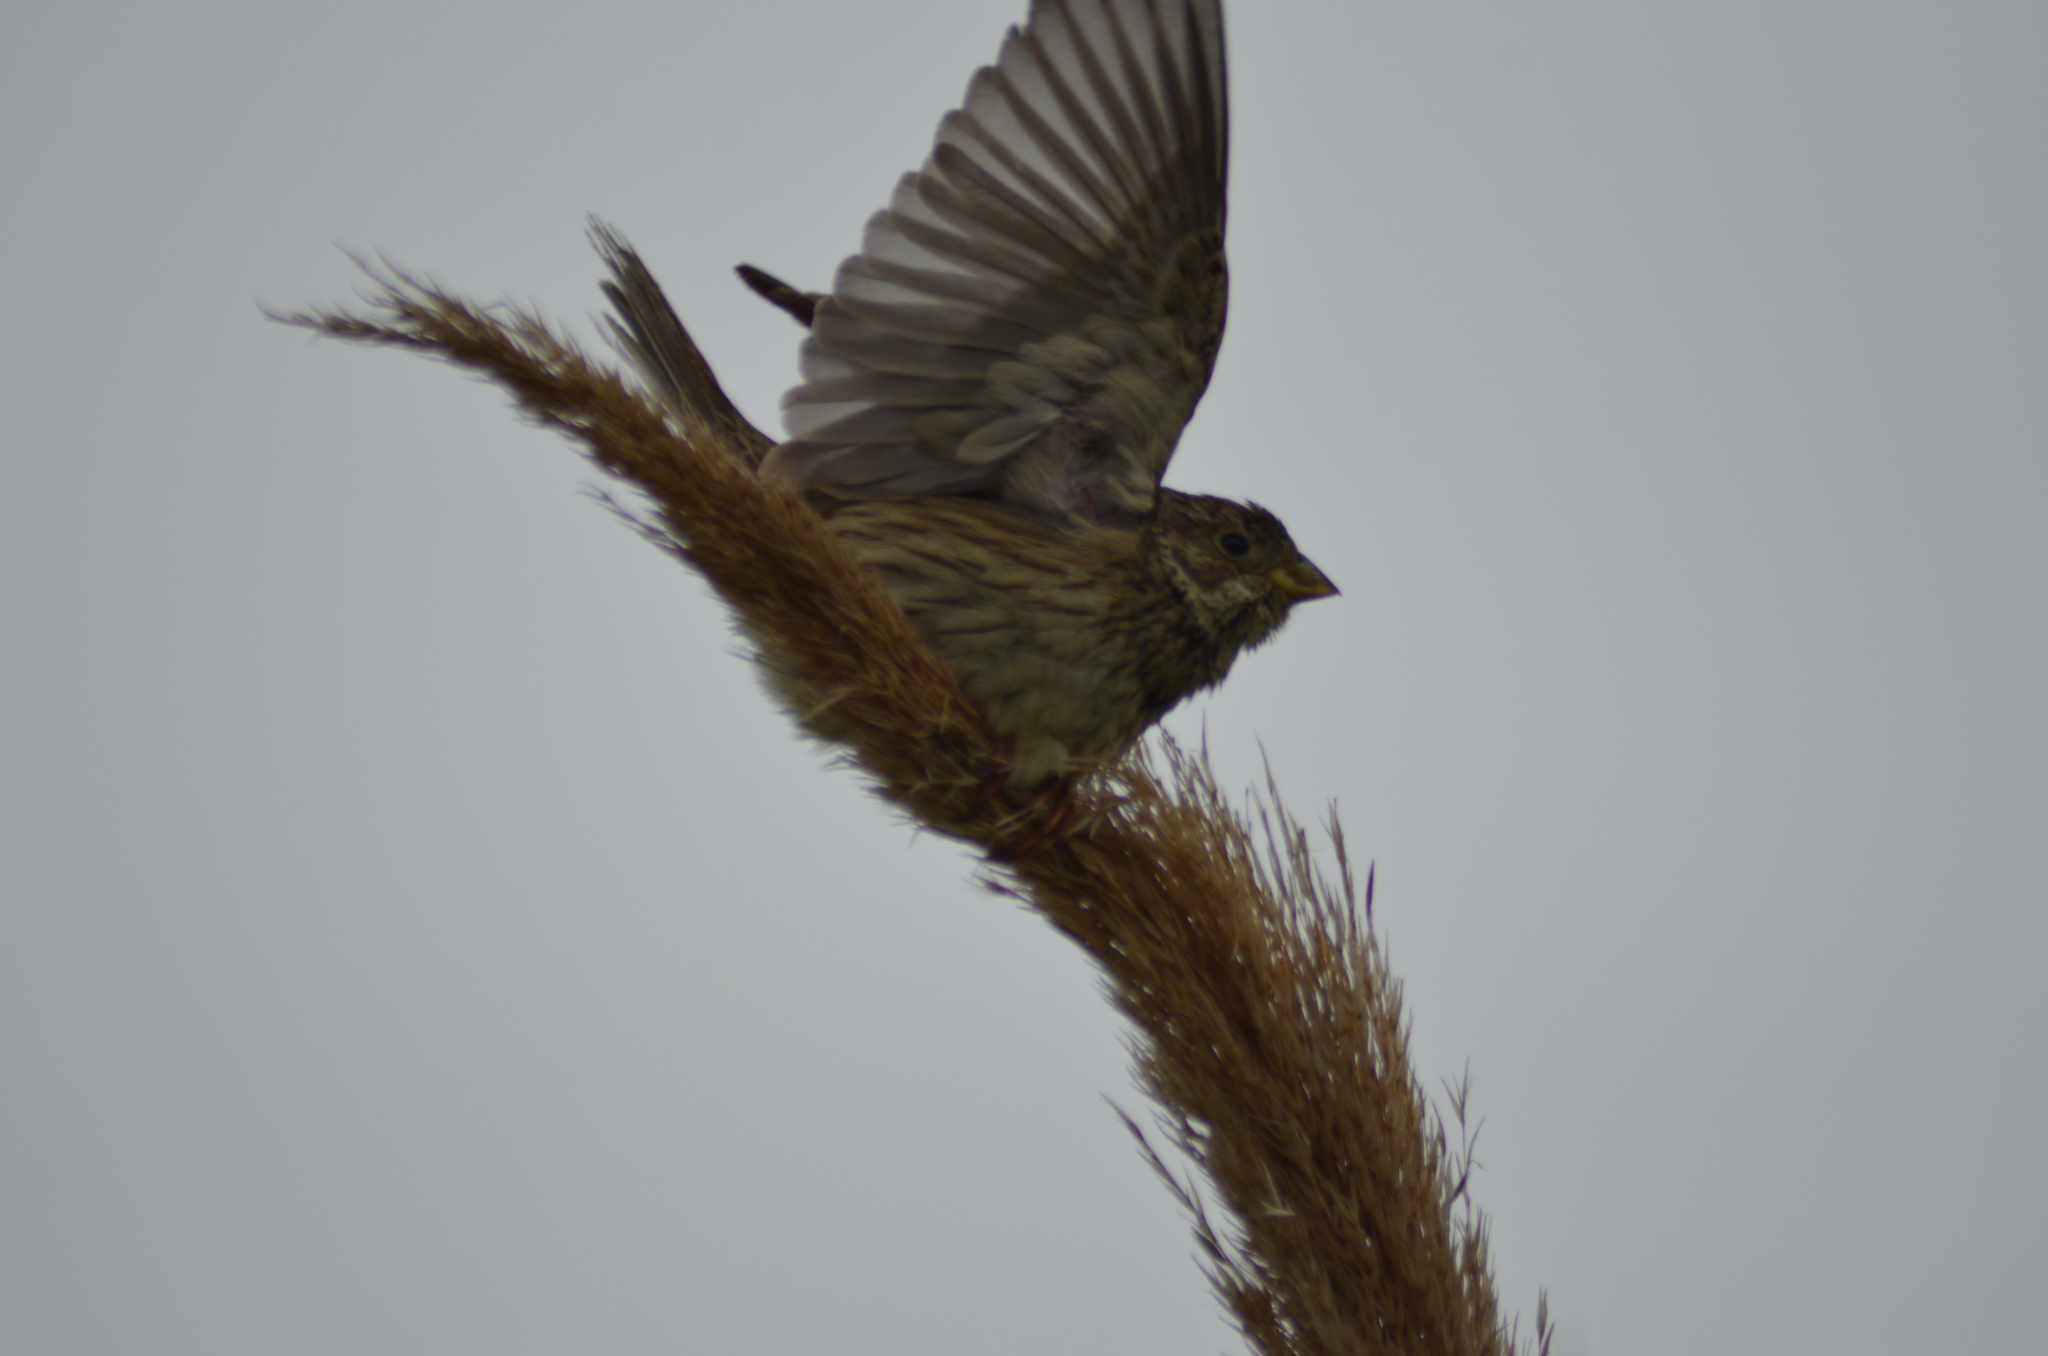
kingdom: Animalia
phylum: Chordata
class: Aves
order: Passeriformes
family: Emberizidae
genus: Emberiza
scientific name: Emberiza calandra
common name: Corn bunting
